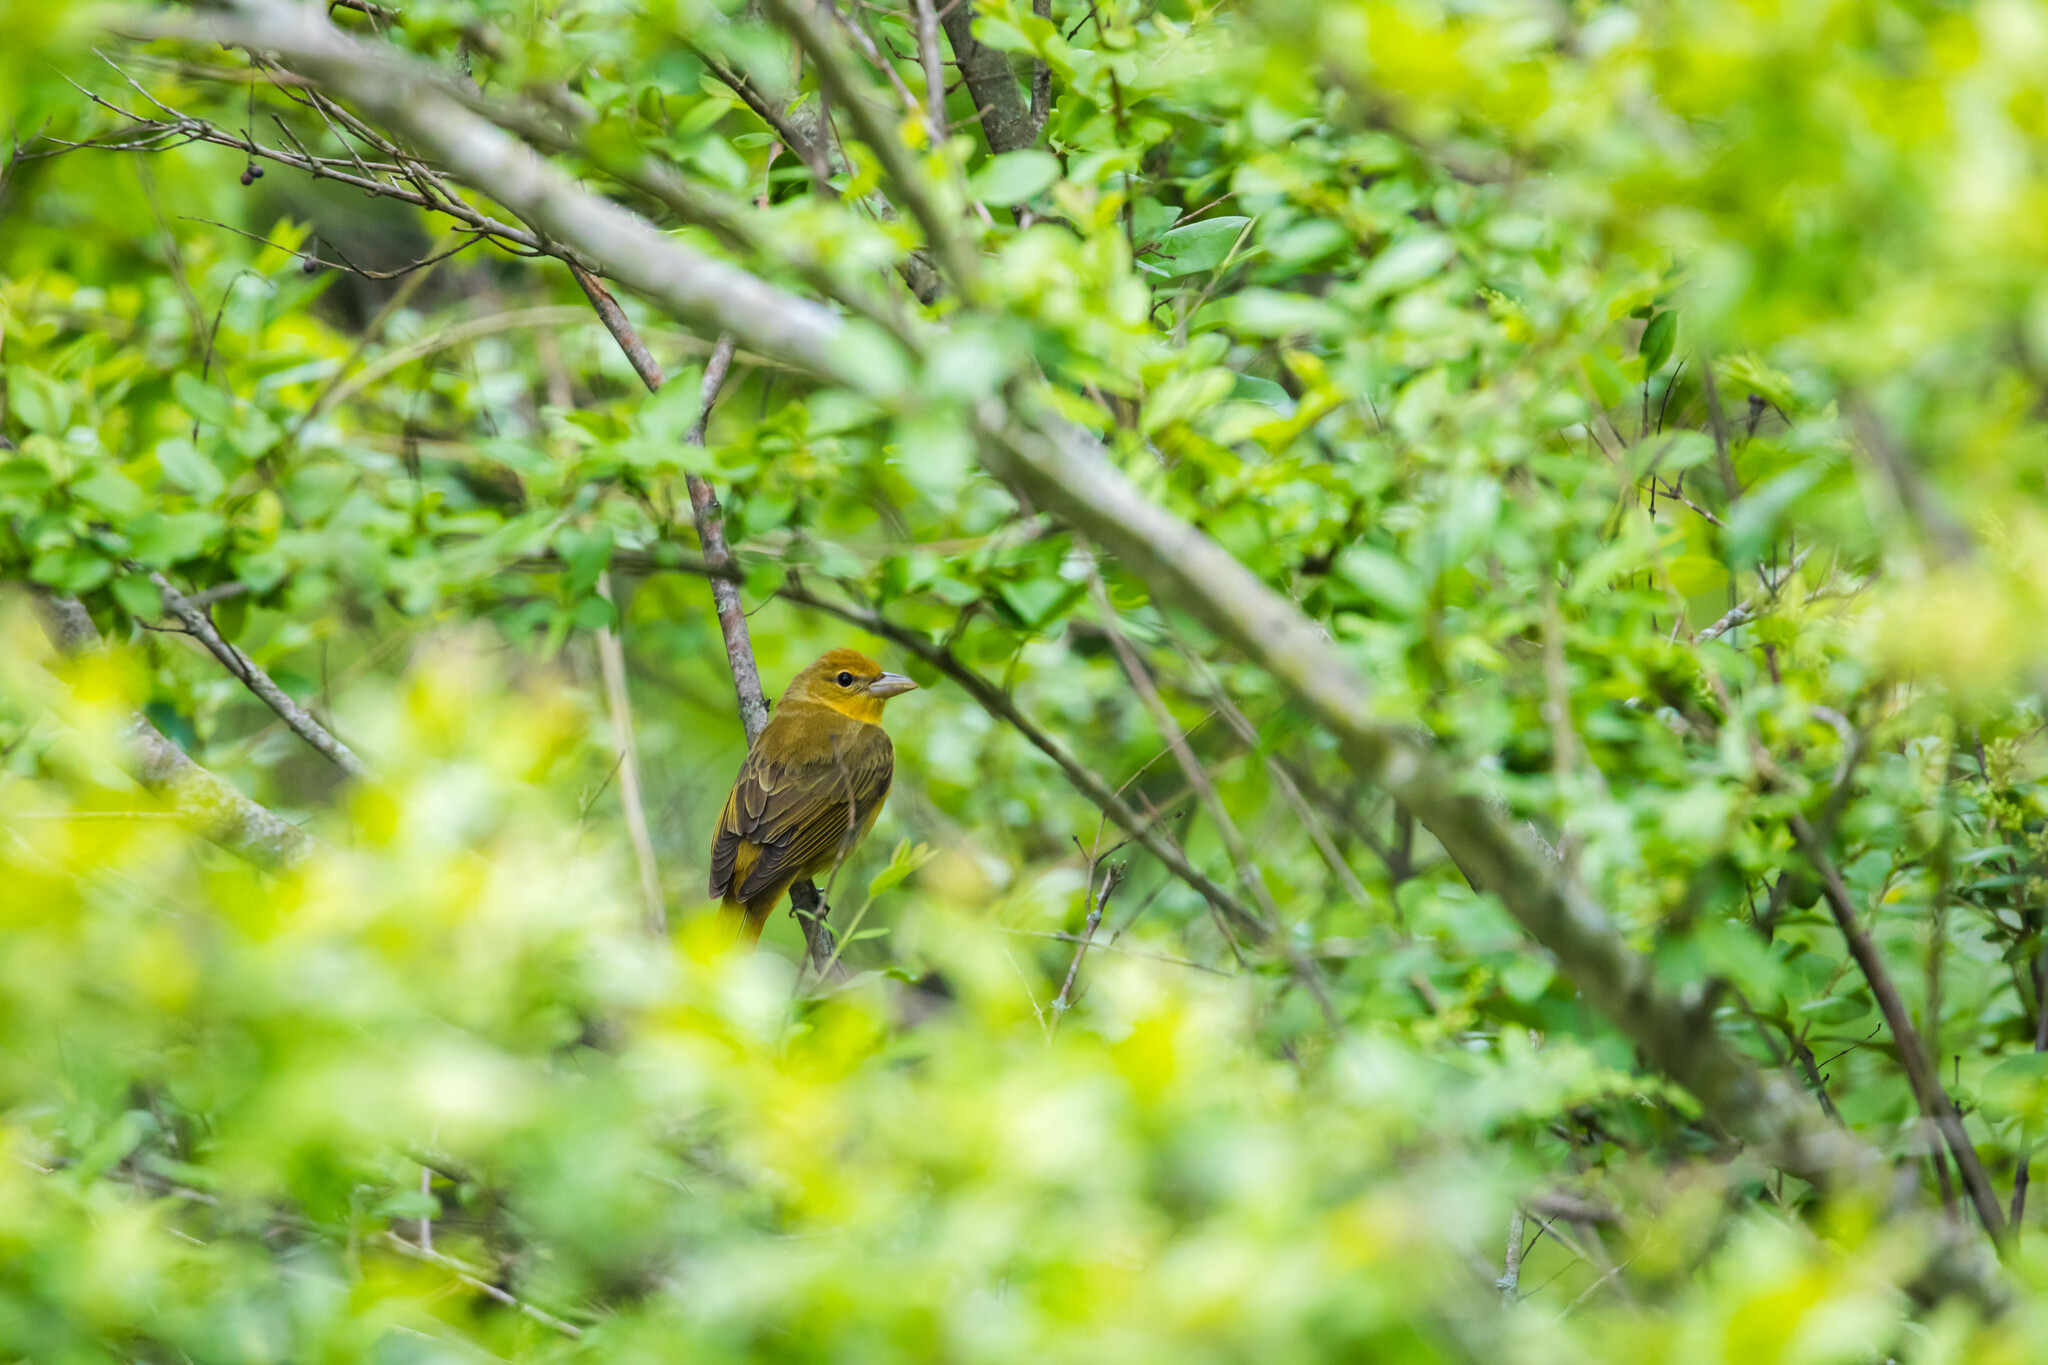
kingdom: Animalia
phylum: Chordata
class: Aves
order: Passeriformes
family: Cardinalidae
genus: Piranga
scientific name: Piranga rubra
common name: Summer tanager
